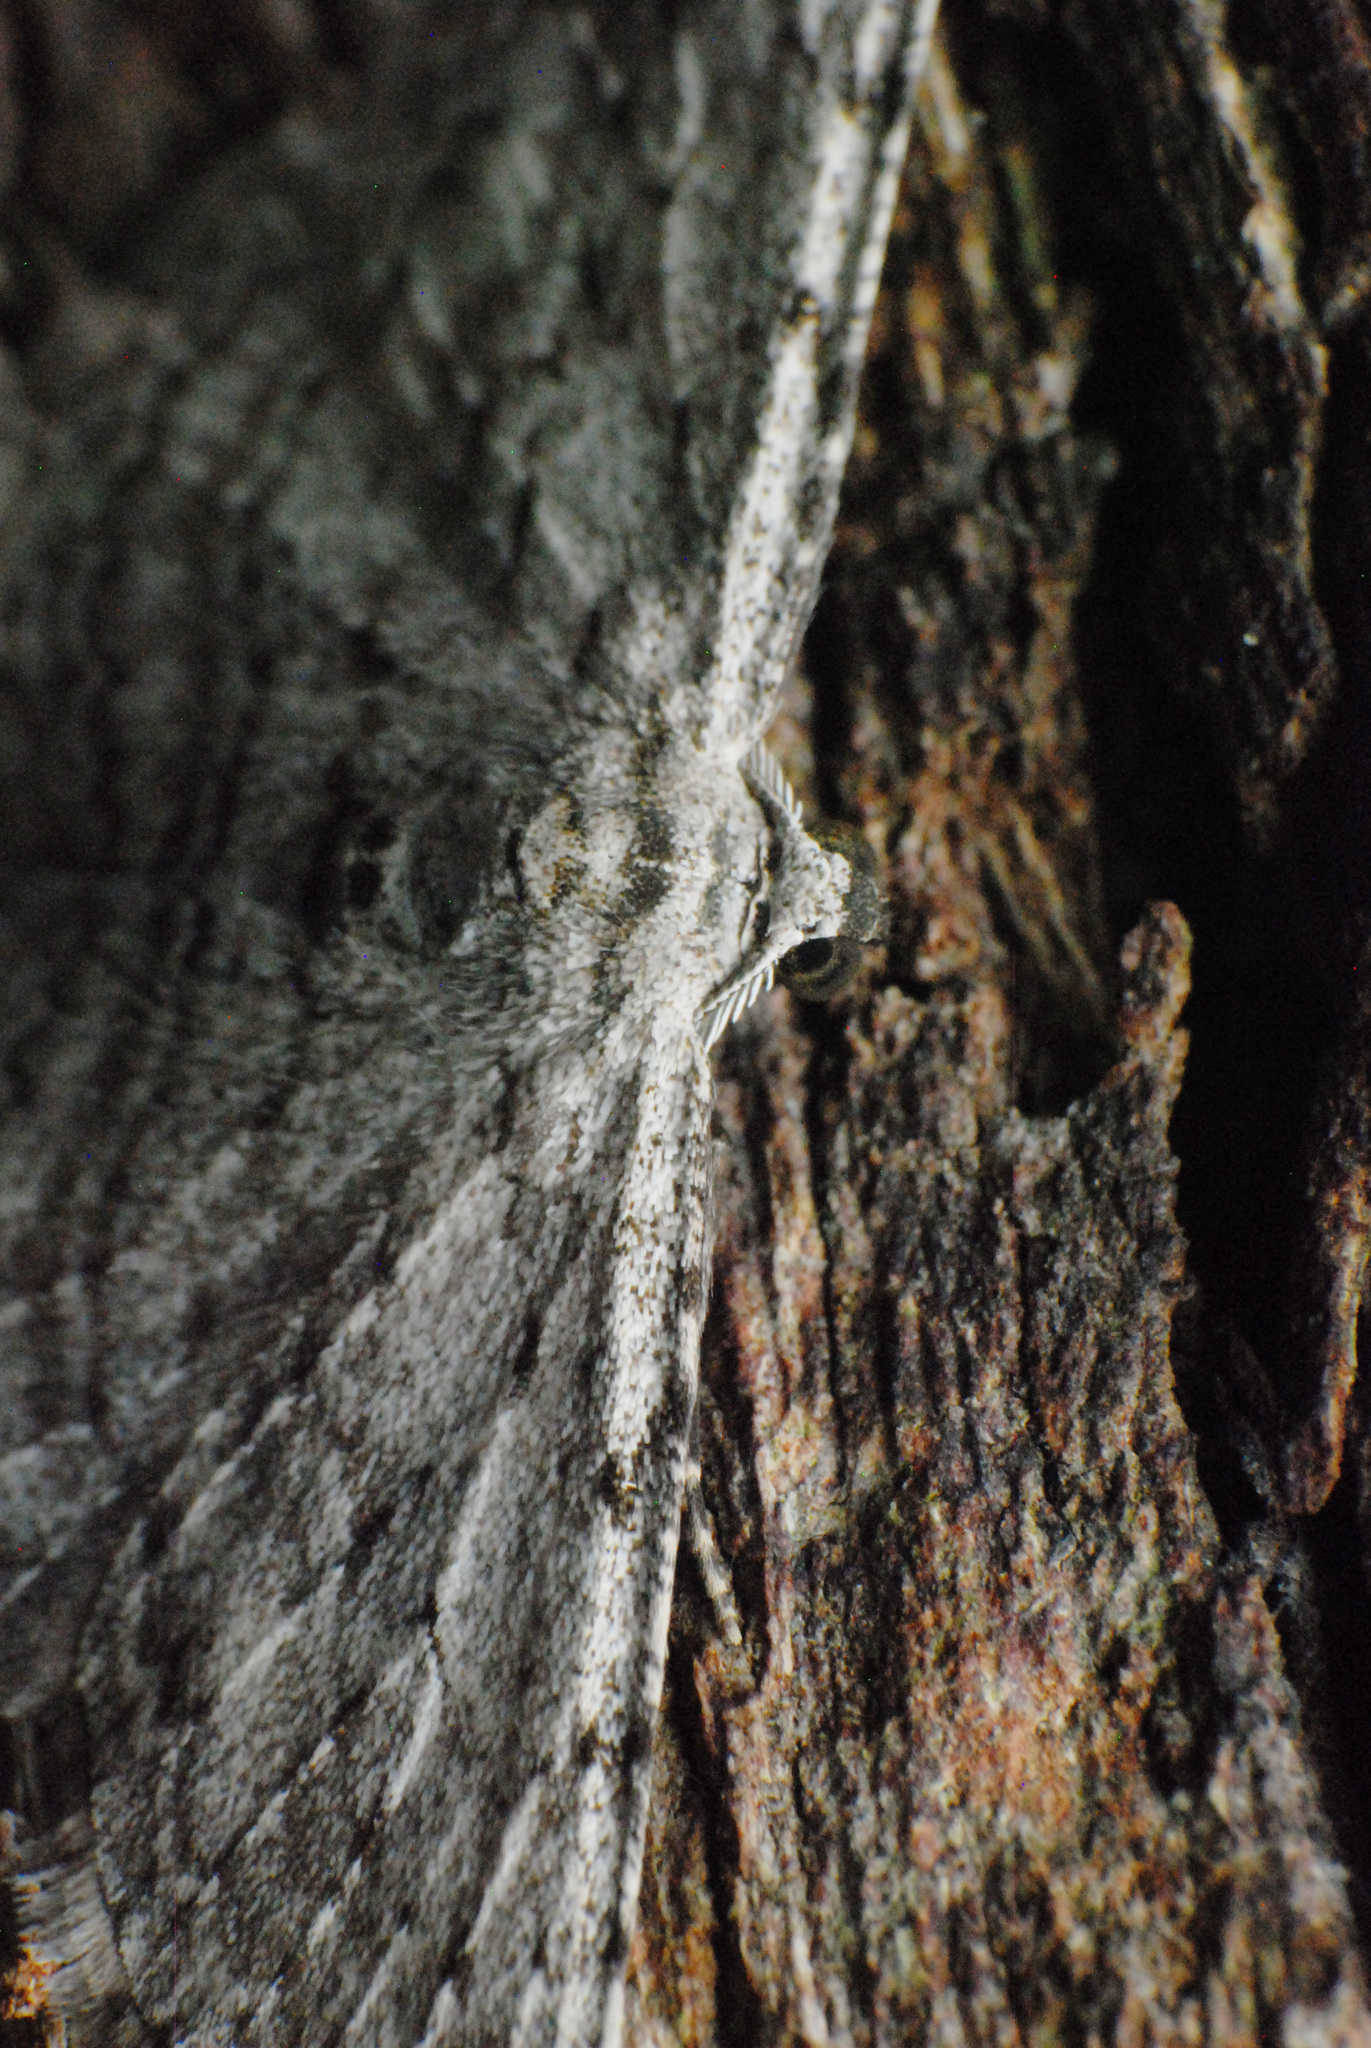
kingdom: Animalia
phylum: Arthropoda
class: Insecta
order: Lepidoptera
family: Geometridae
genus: Phelotis
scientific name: Phelotis cognata
